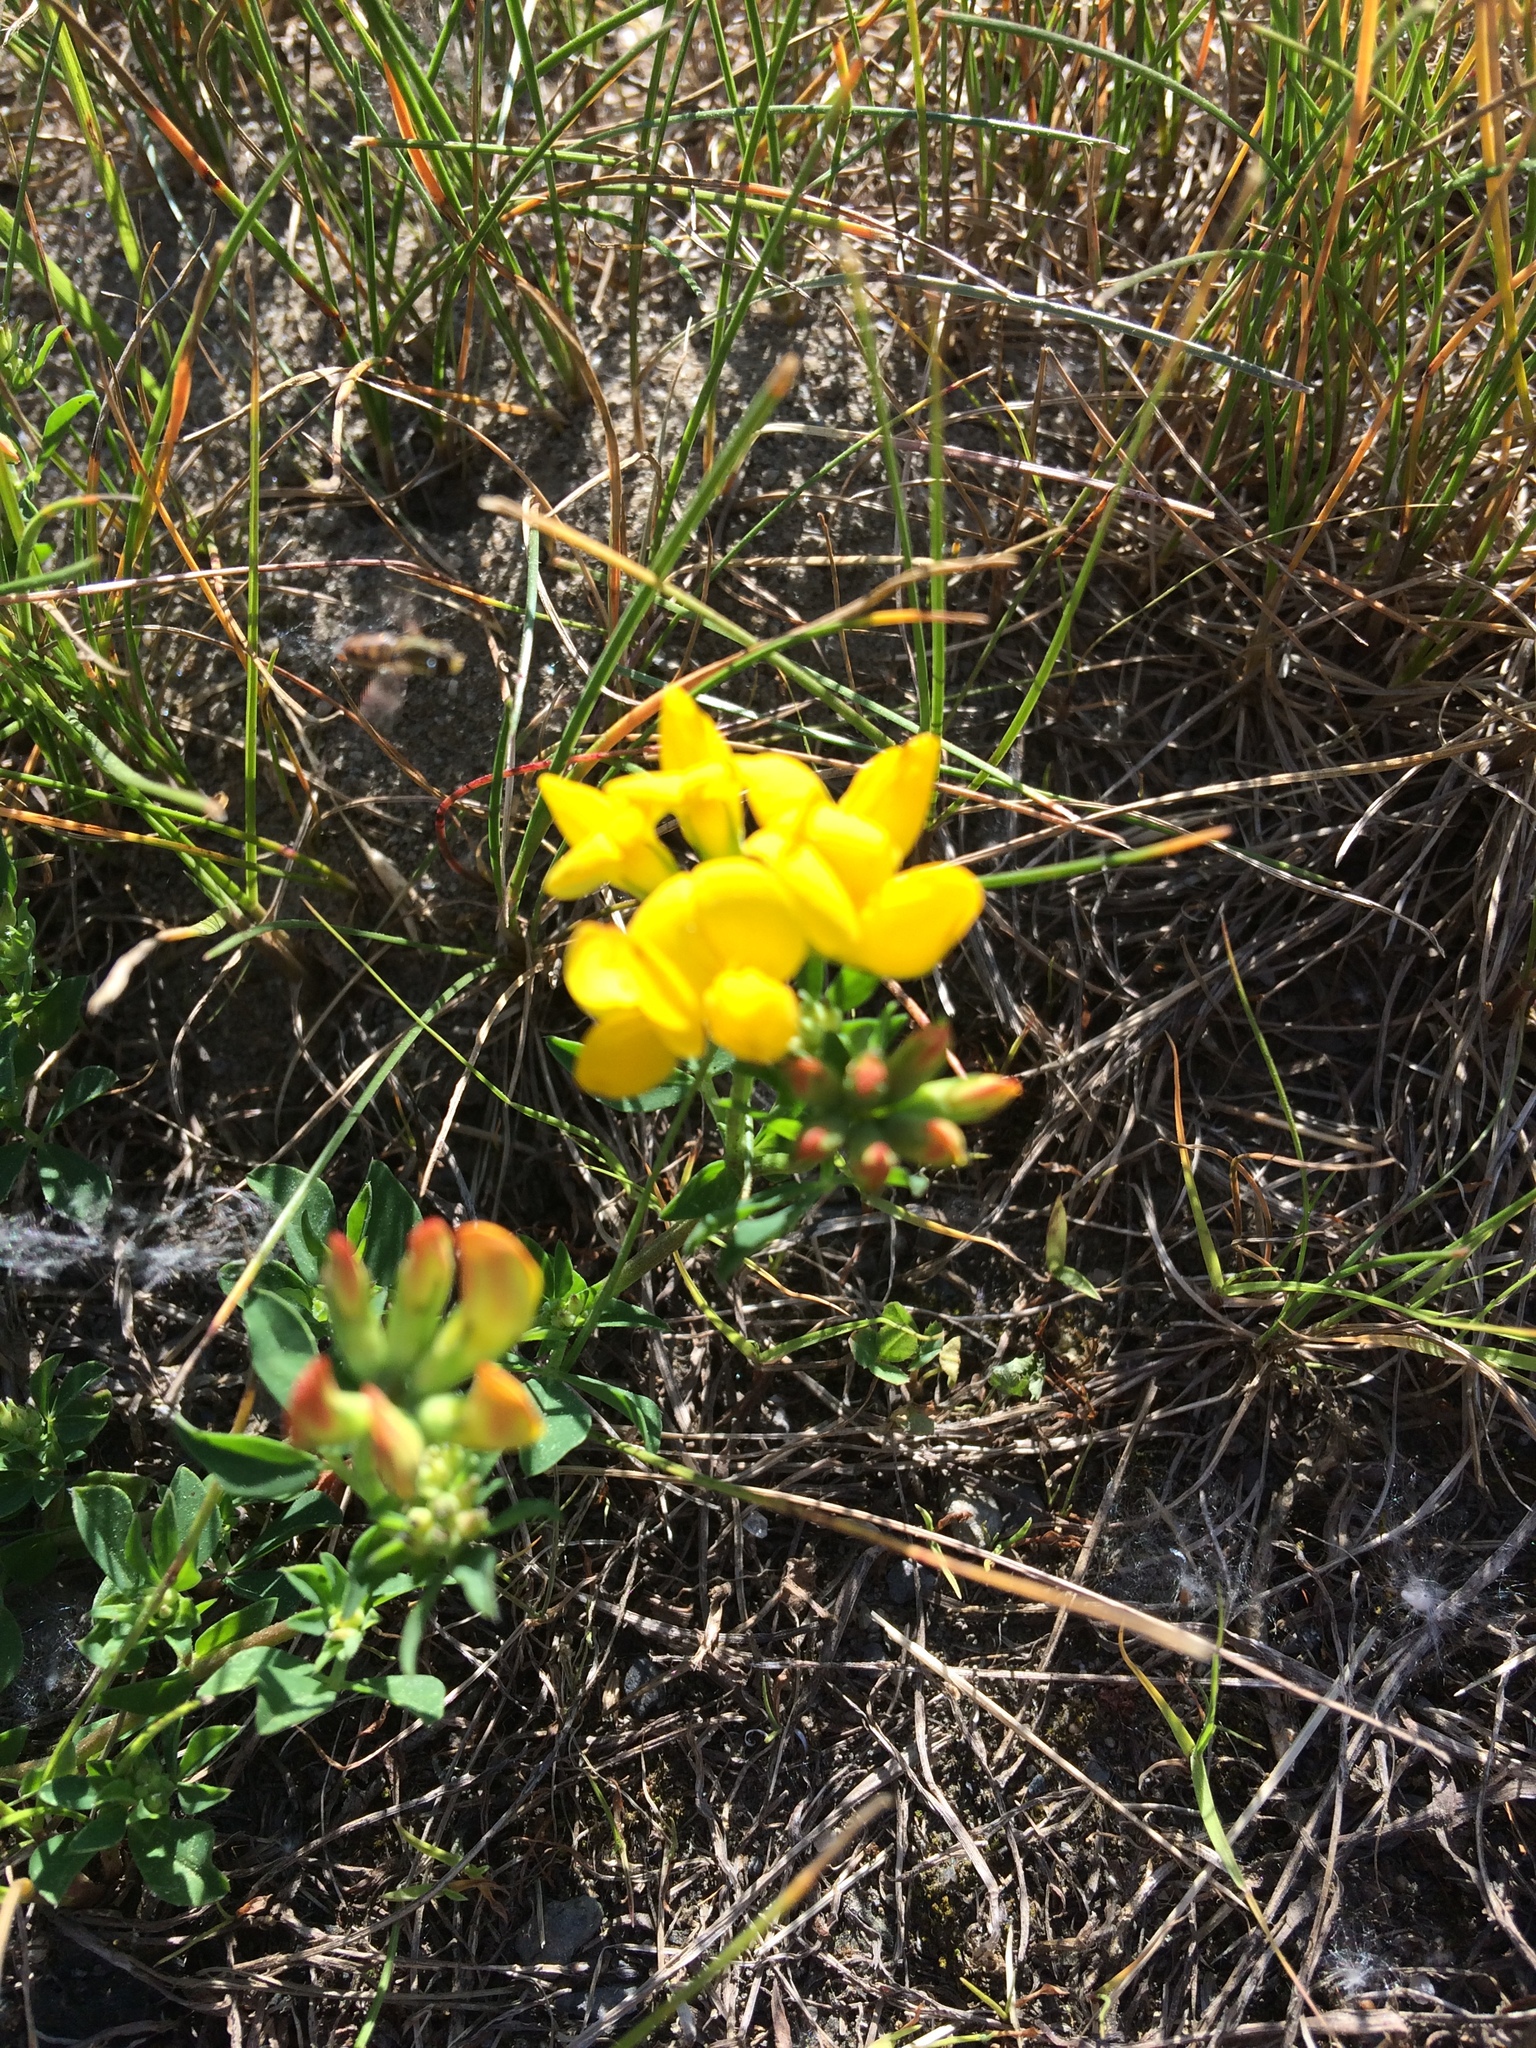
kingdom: Plantae
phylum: Tracheophyta
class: Magnoliopsida
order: Fabales
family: Fabaceae
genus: Lotus
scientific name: Lotus corniculatus
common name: Common bird's-foot-trefoil
